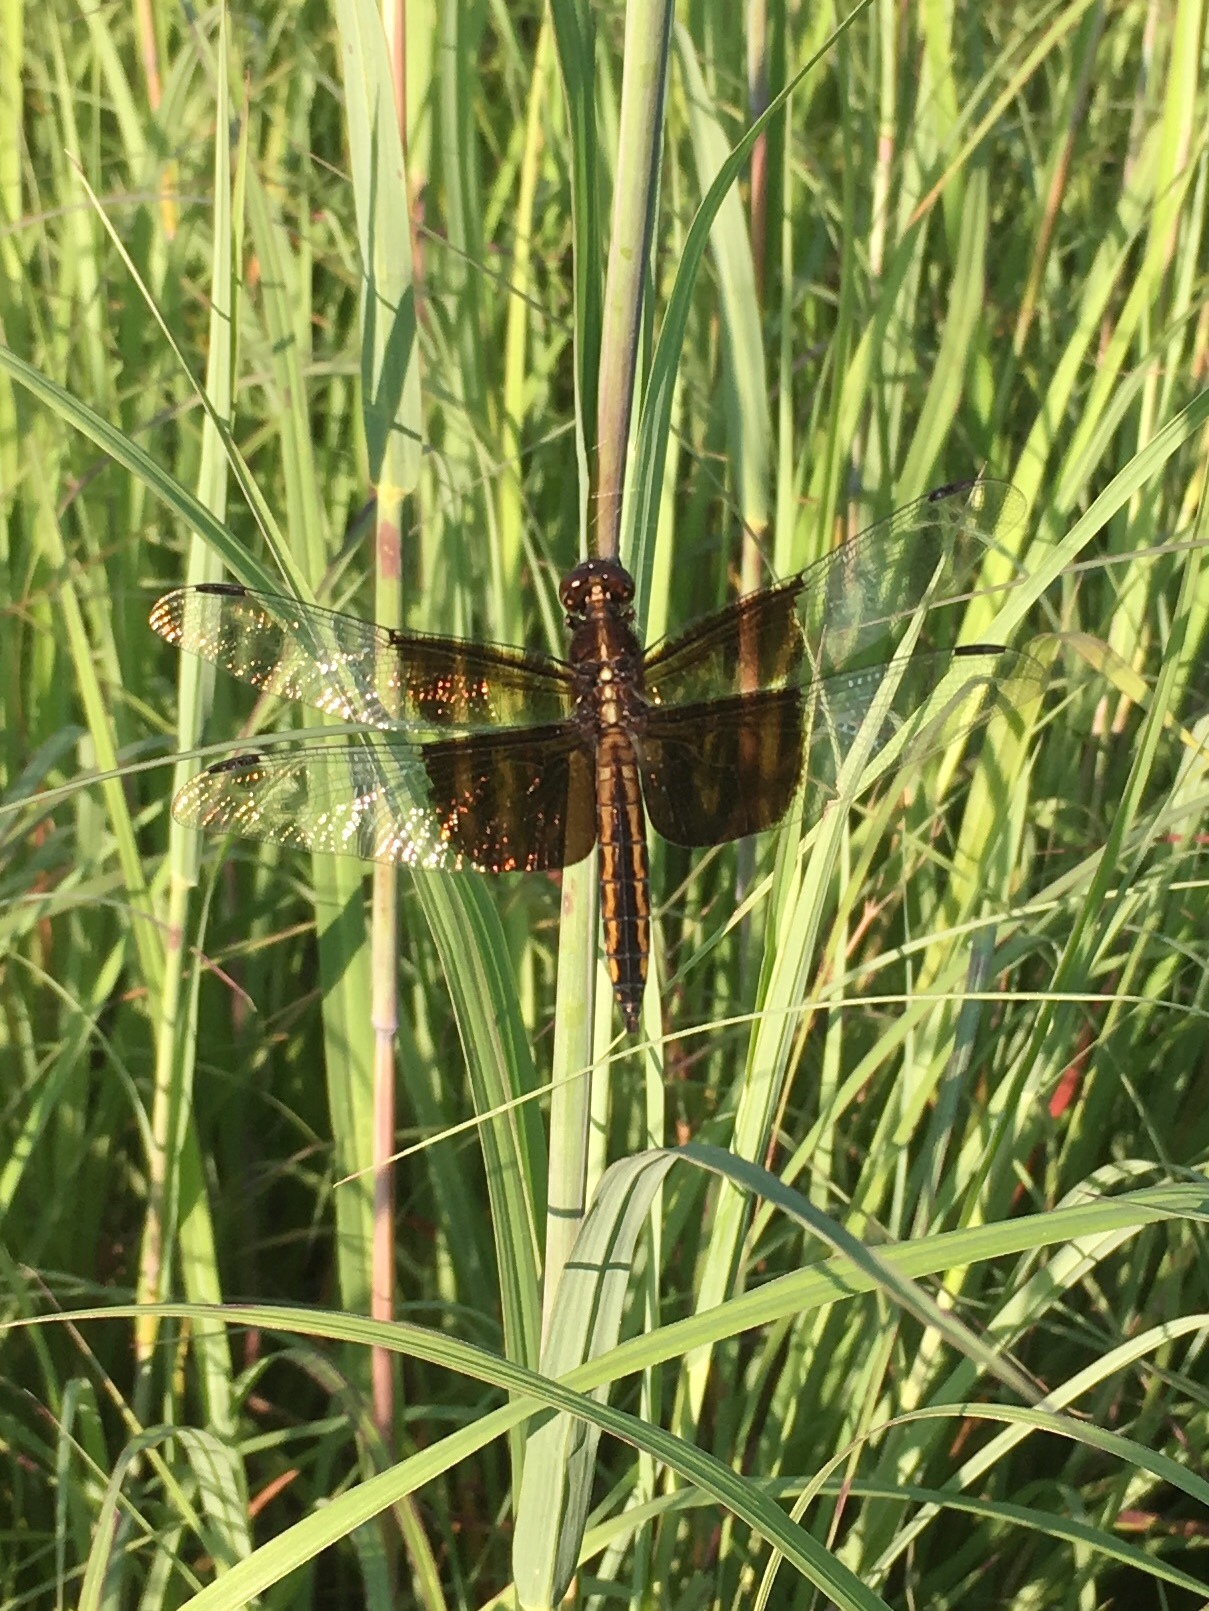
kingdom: Animalia
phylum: Arthropoda
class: Insecta
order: Odonata
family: Libellulidae
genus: Libellula
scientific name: Libellula luctuosa
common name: Widow skimmer
